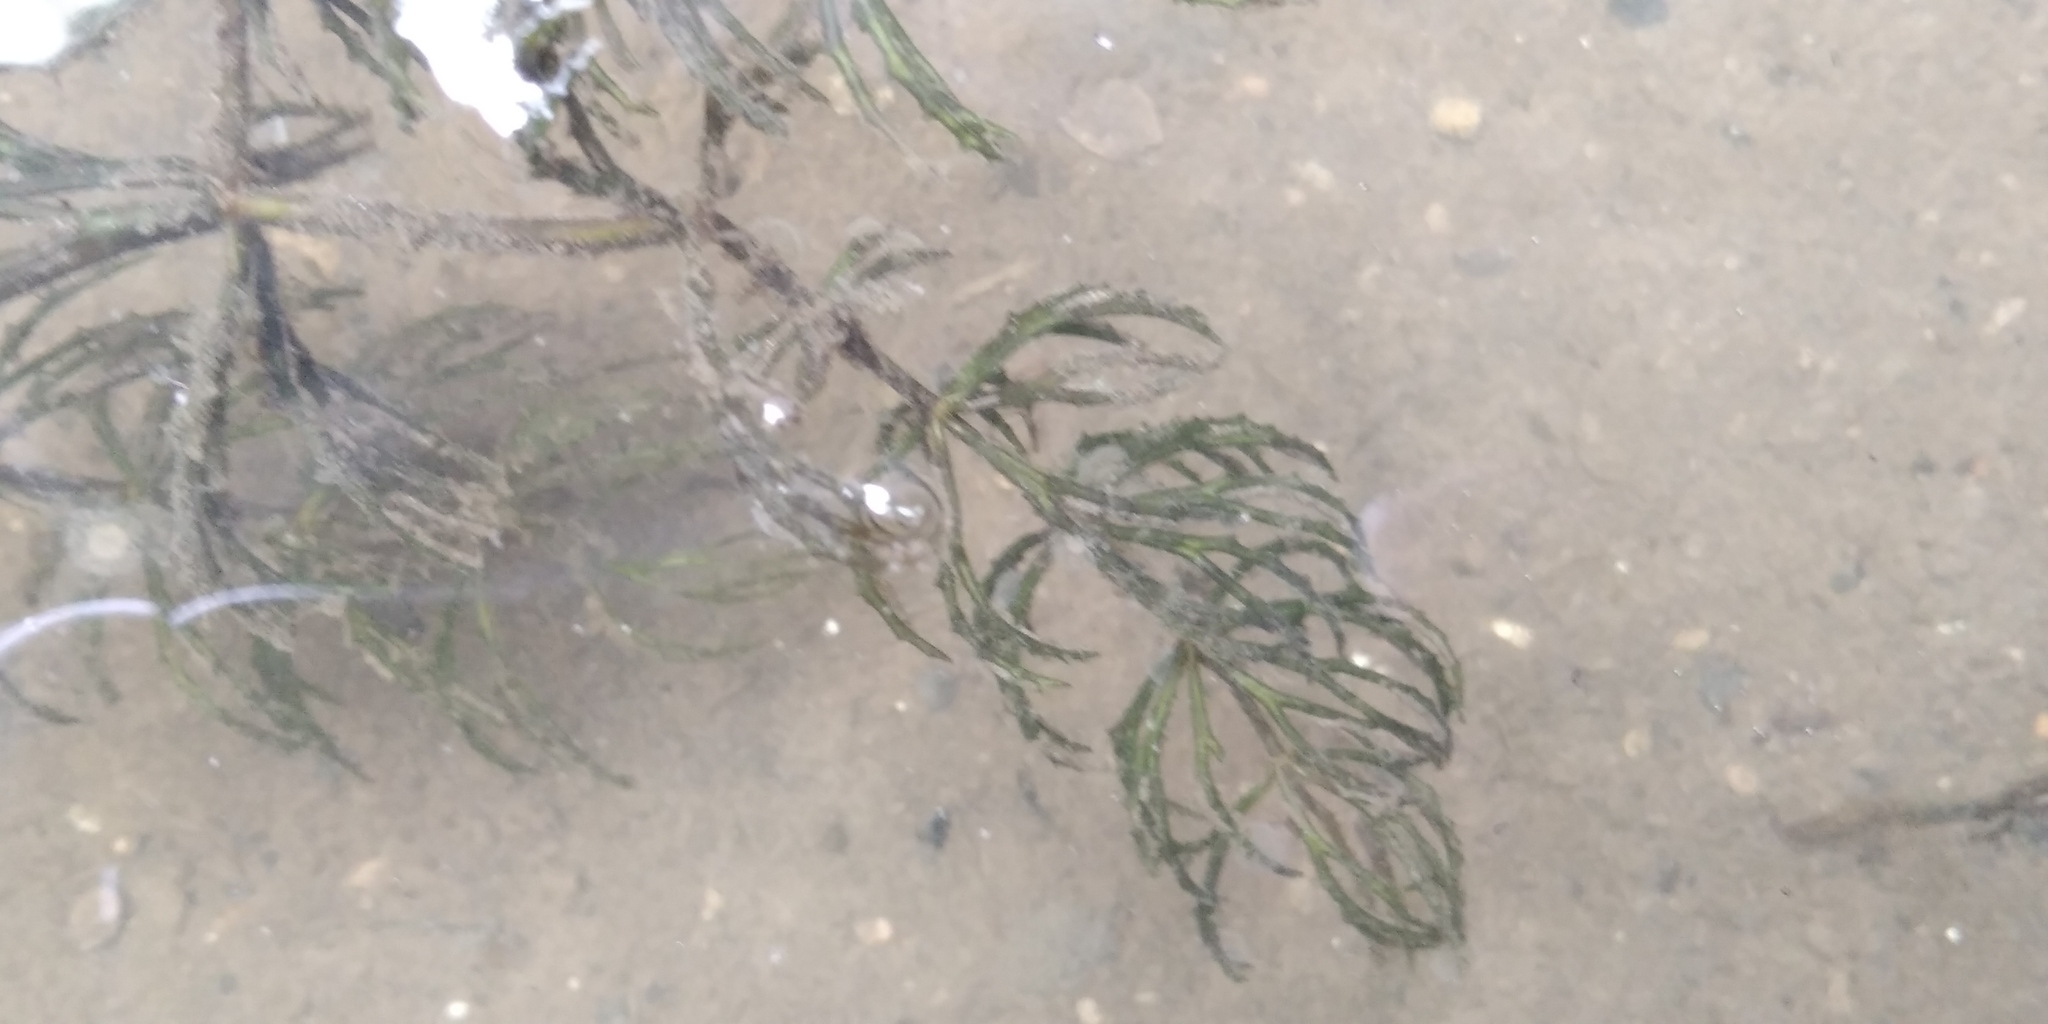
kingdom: Plantae
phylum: Tracheophyta
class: Magnoliopsida
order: Ceratophyllales
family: Ceratophyllaceae
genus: Ceratophyllum
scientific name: Ceratophyllum demersum
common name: Rigid hornwort
